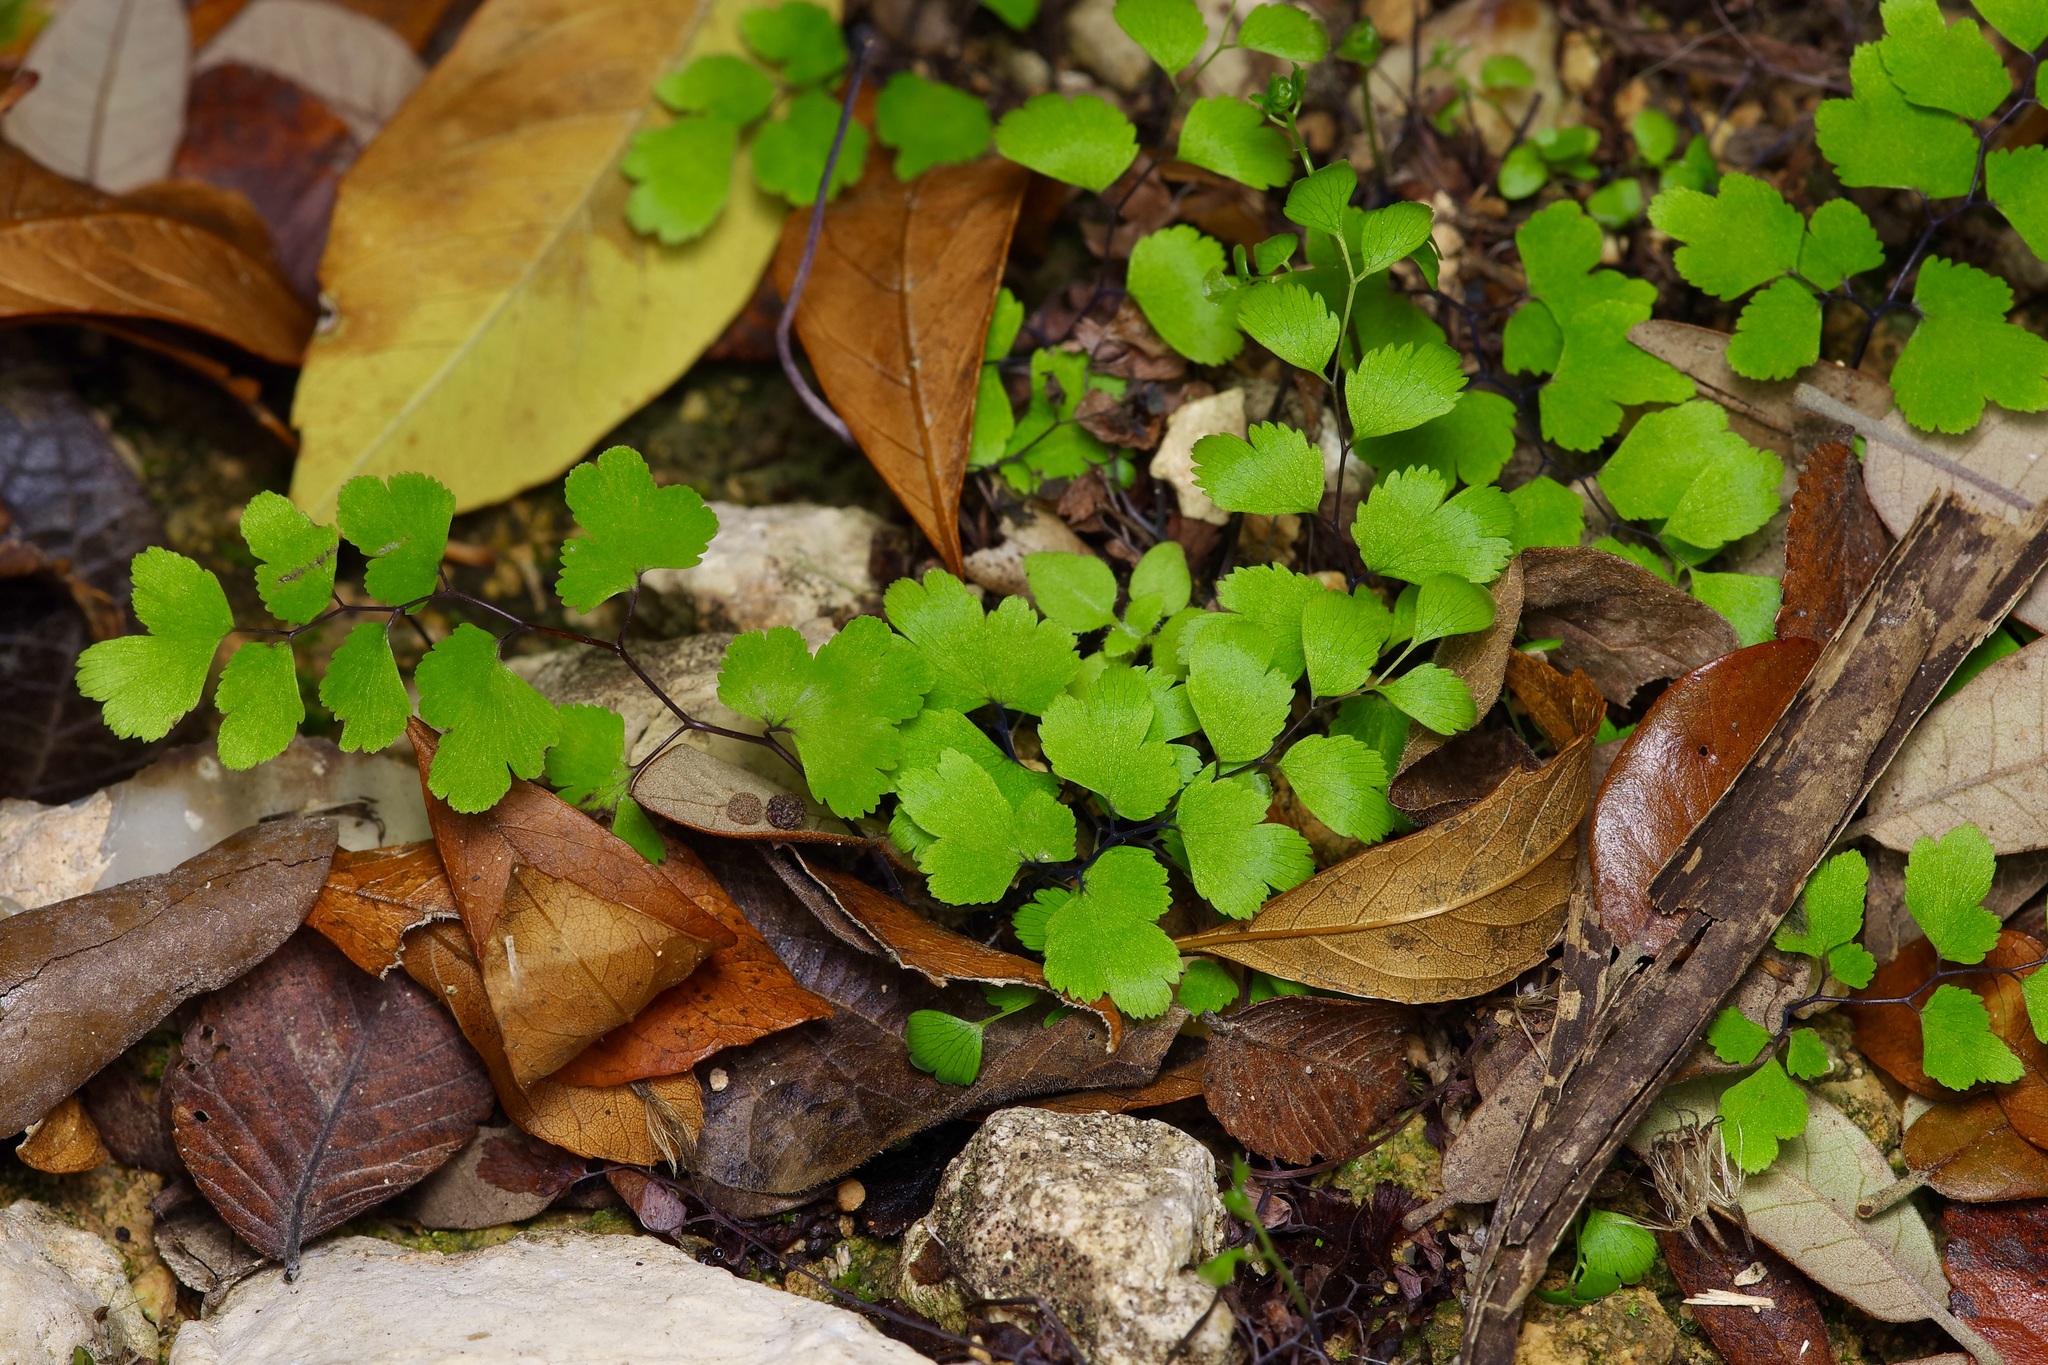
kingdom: Plantae
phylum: Tracheophyta
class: Polypodiopsida
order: Polypodiales
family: Pteridaceae
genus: Adiantum
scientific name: Adiantum capillus-veneris
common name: Maidenhair fern
